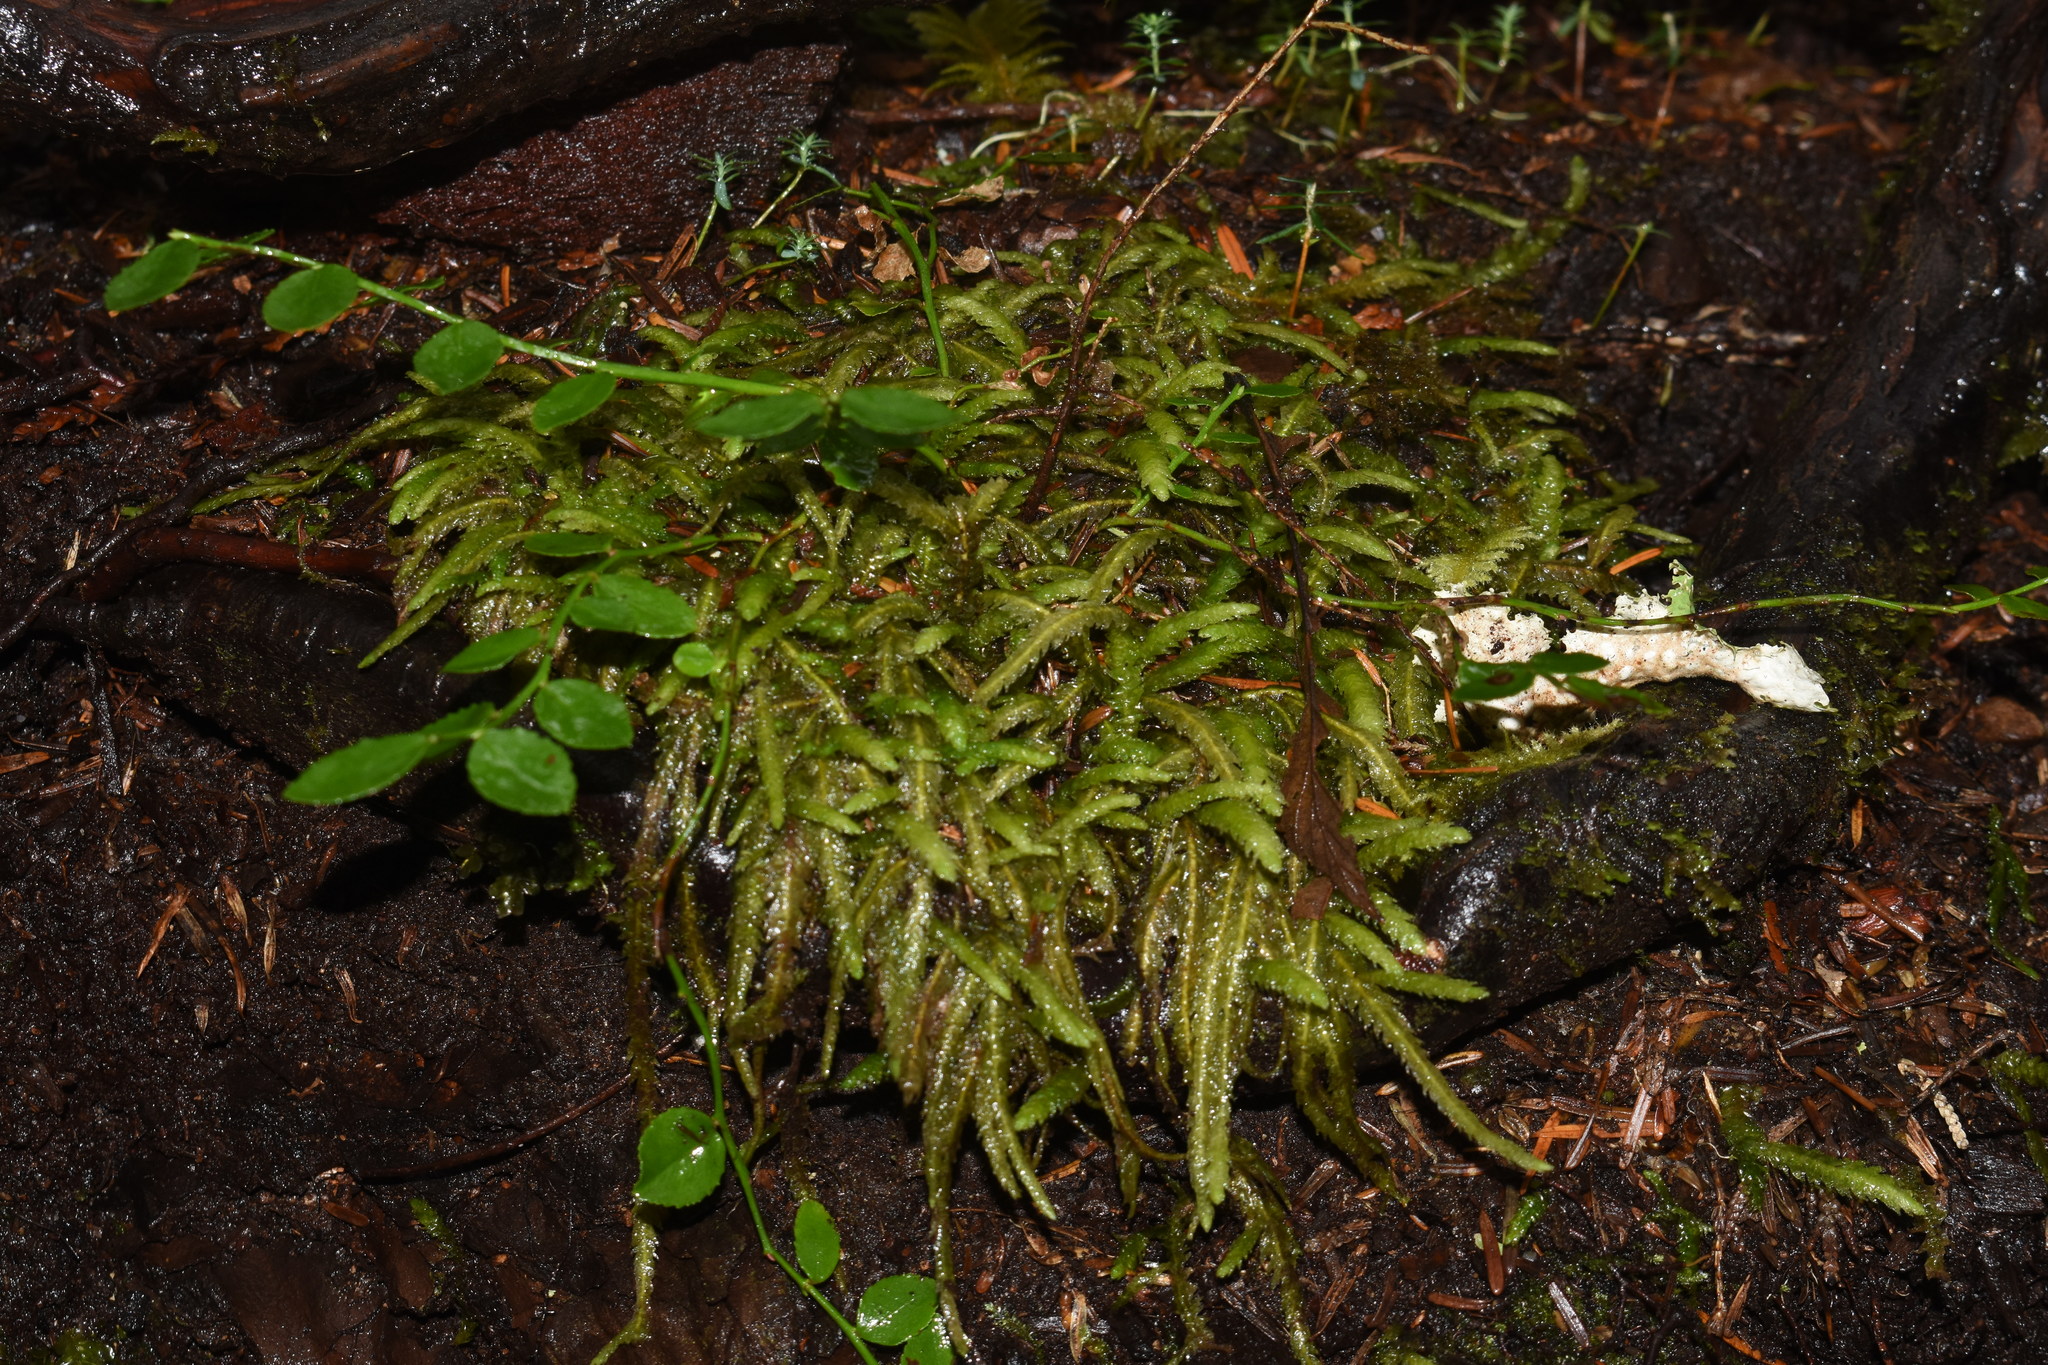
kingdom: Plantae
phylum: Bryophyta
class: Bryopsida
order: Hypnales
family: Plagiotheciaceae
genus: Plagiothecium
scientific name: Plagiothecium undulatum
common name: Waved silk-moss
